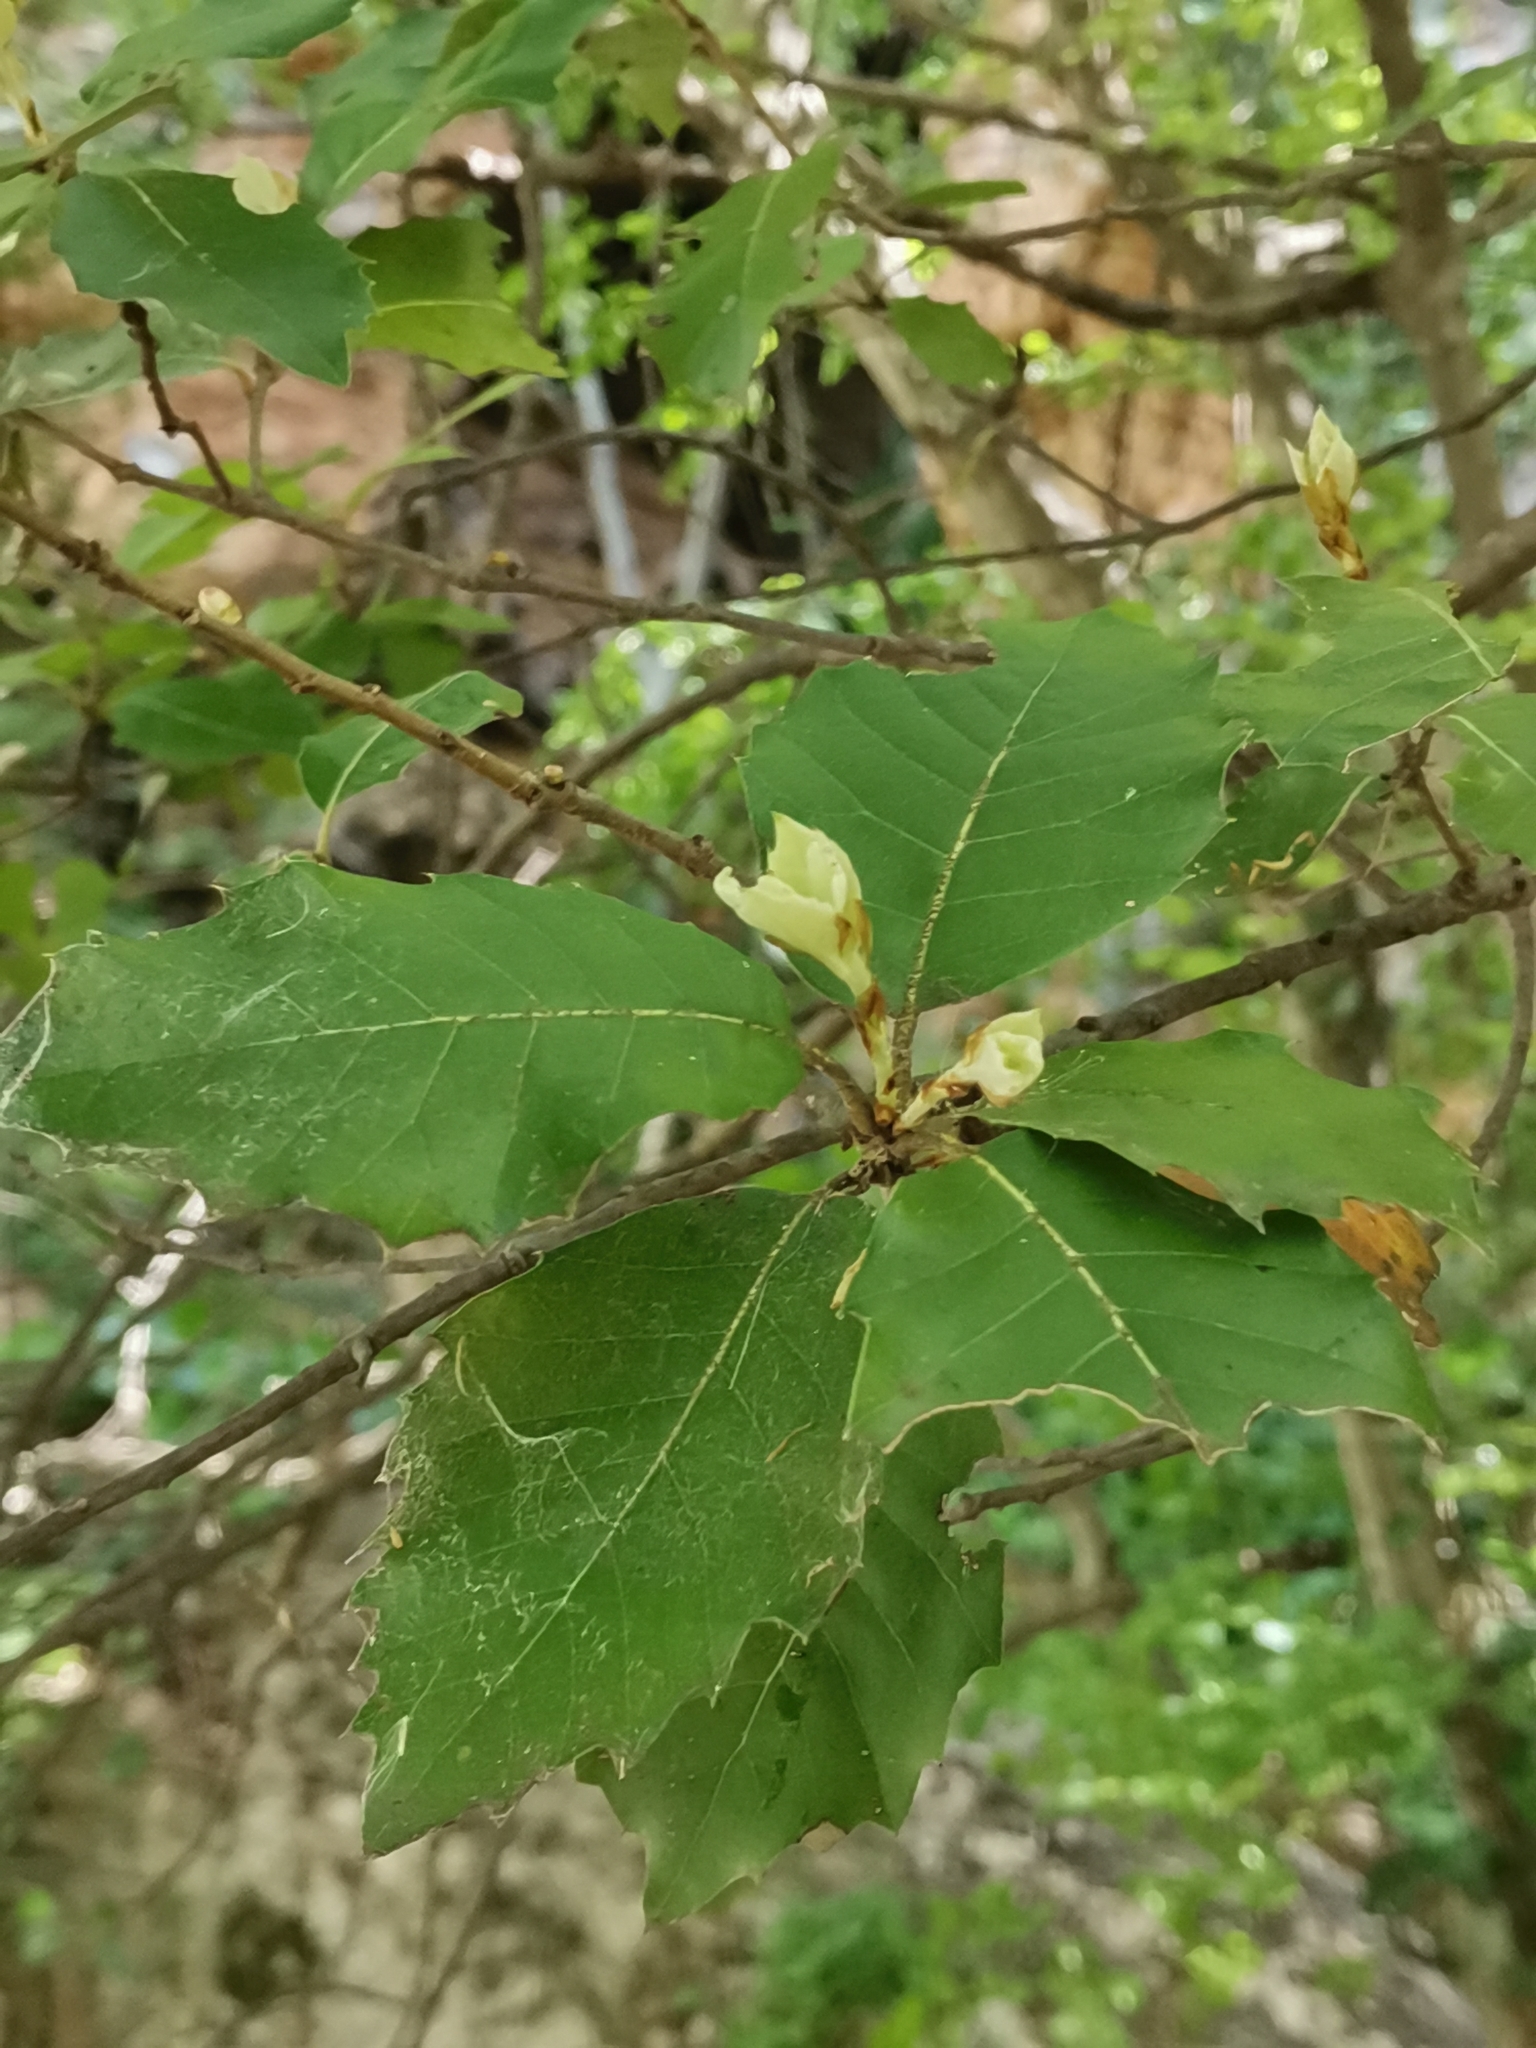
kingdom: Plantae
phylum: Tracheophyta
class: Magnoliopsida
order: Fagales
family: Fagaceae
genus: Quercus
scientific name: Quercus ilex
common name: Evergreen oak
